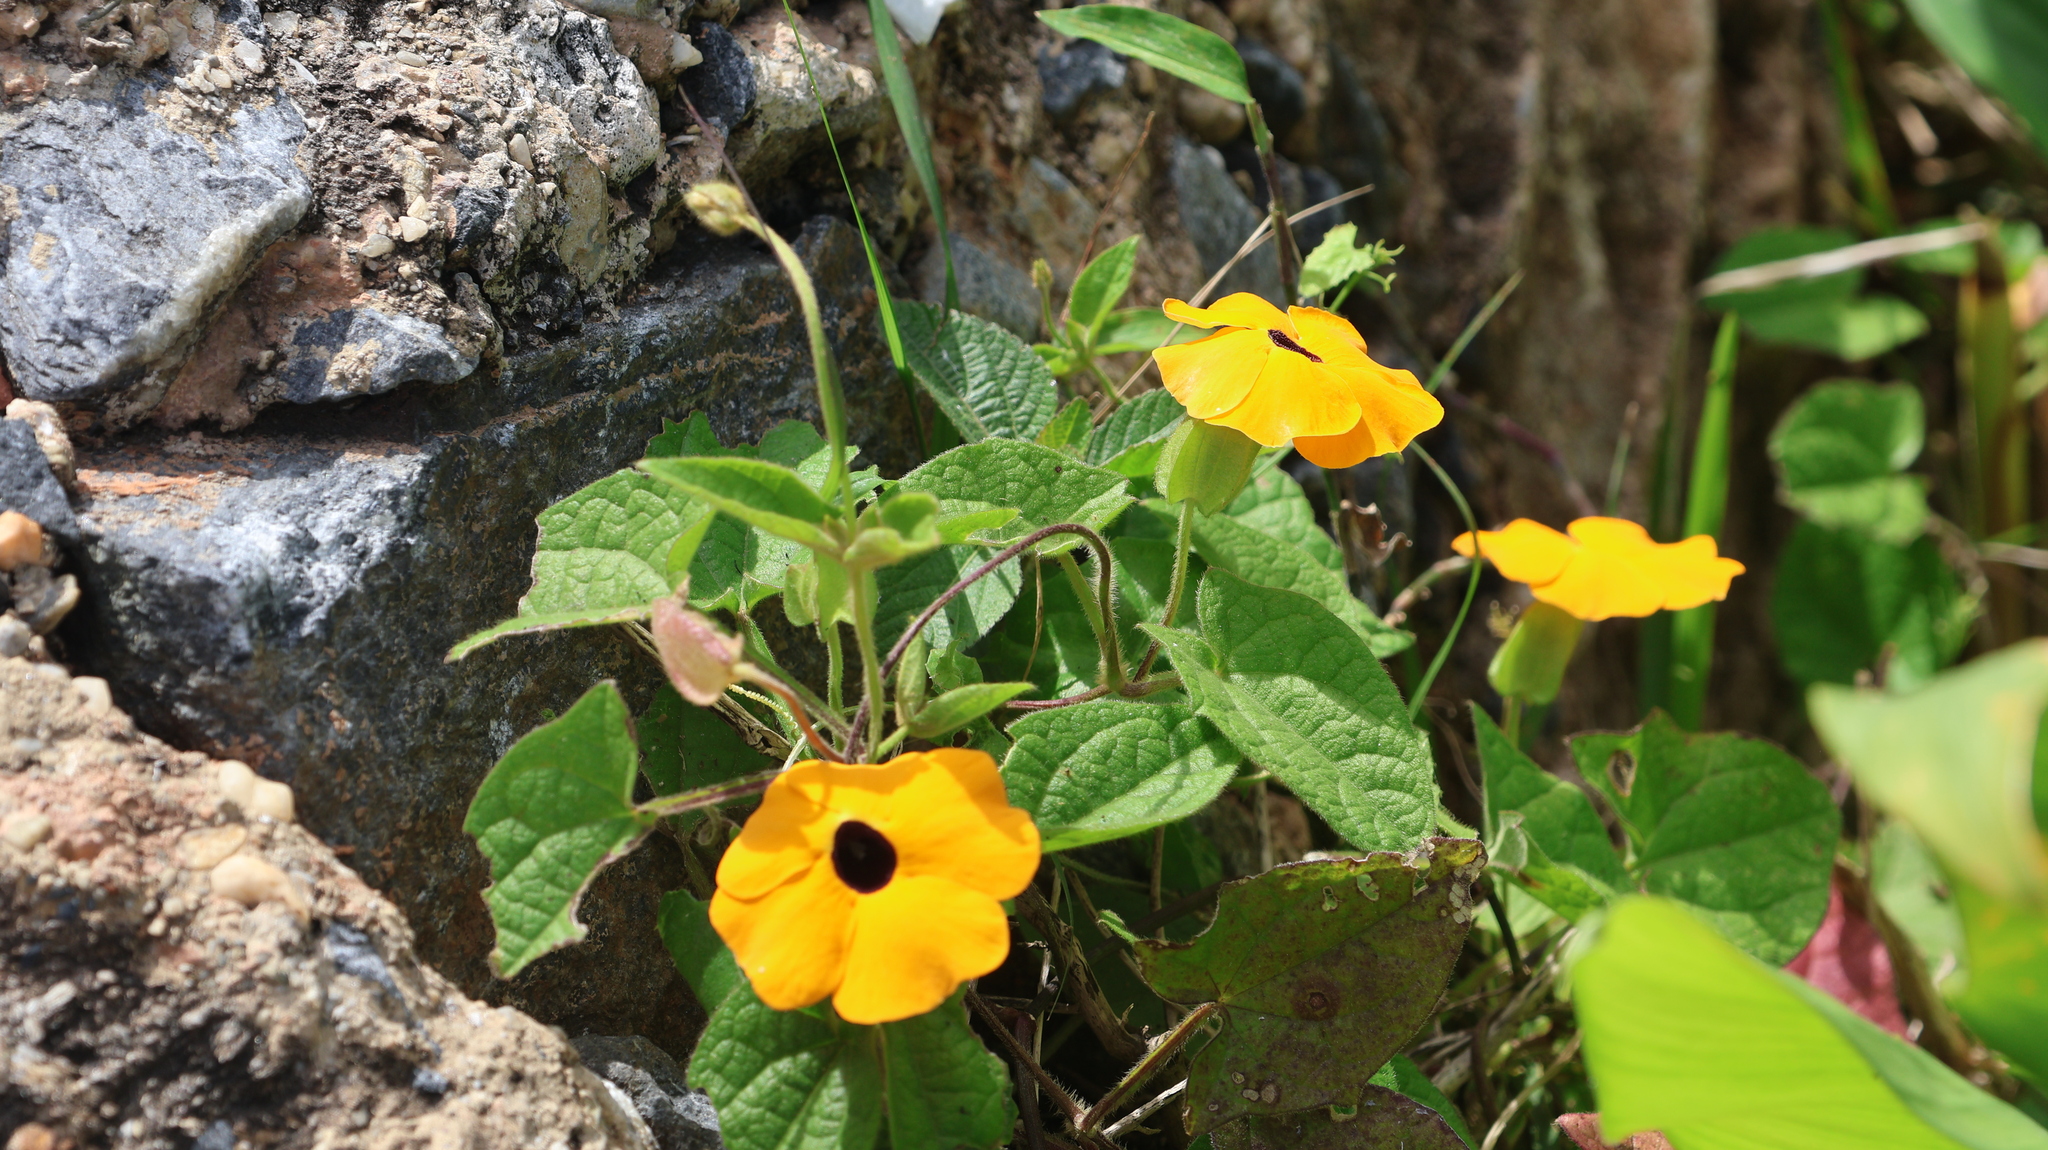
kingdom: Plantae
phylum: Tracheophyta
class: Magnoliopsida
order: Lamiales
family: Acanthaceae
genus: Thunbergia
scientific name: Thunbergia alata
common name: Blackeyed susan vine
